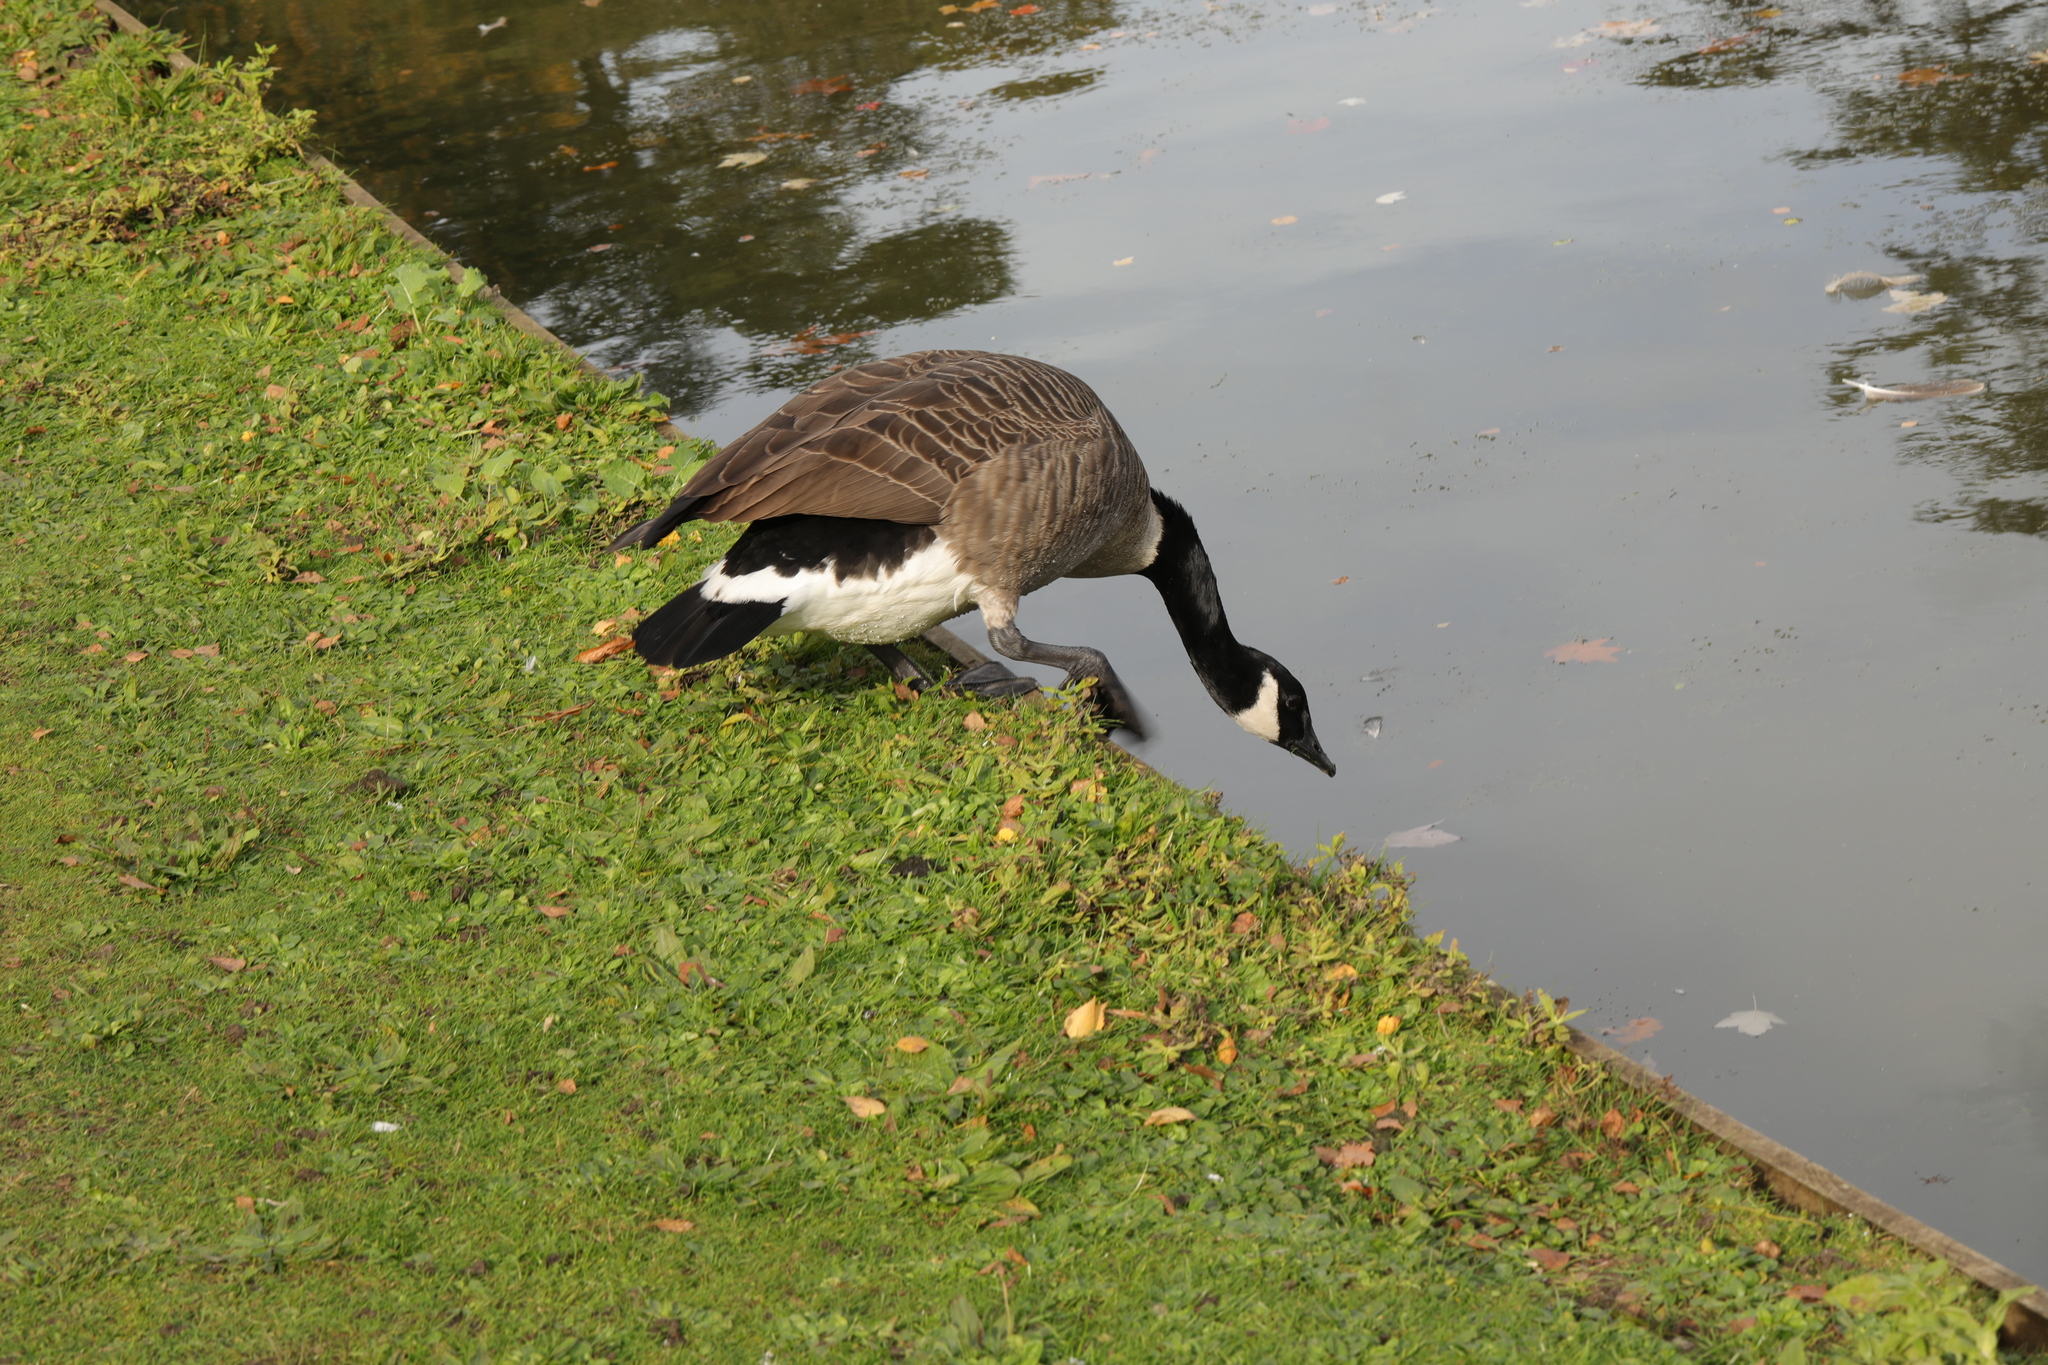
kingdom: Animalia
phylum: Chordata
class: Aves
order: Anseriformes
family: Anatidae
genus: Branta
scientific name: Branta canadensis
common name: Canada goose
